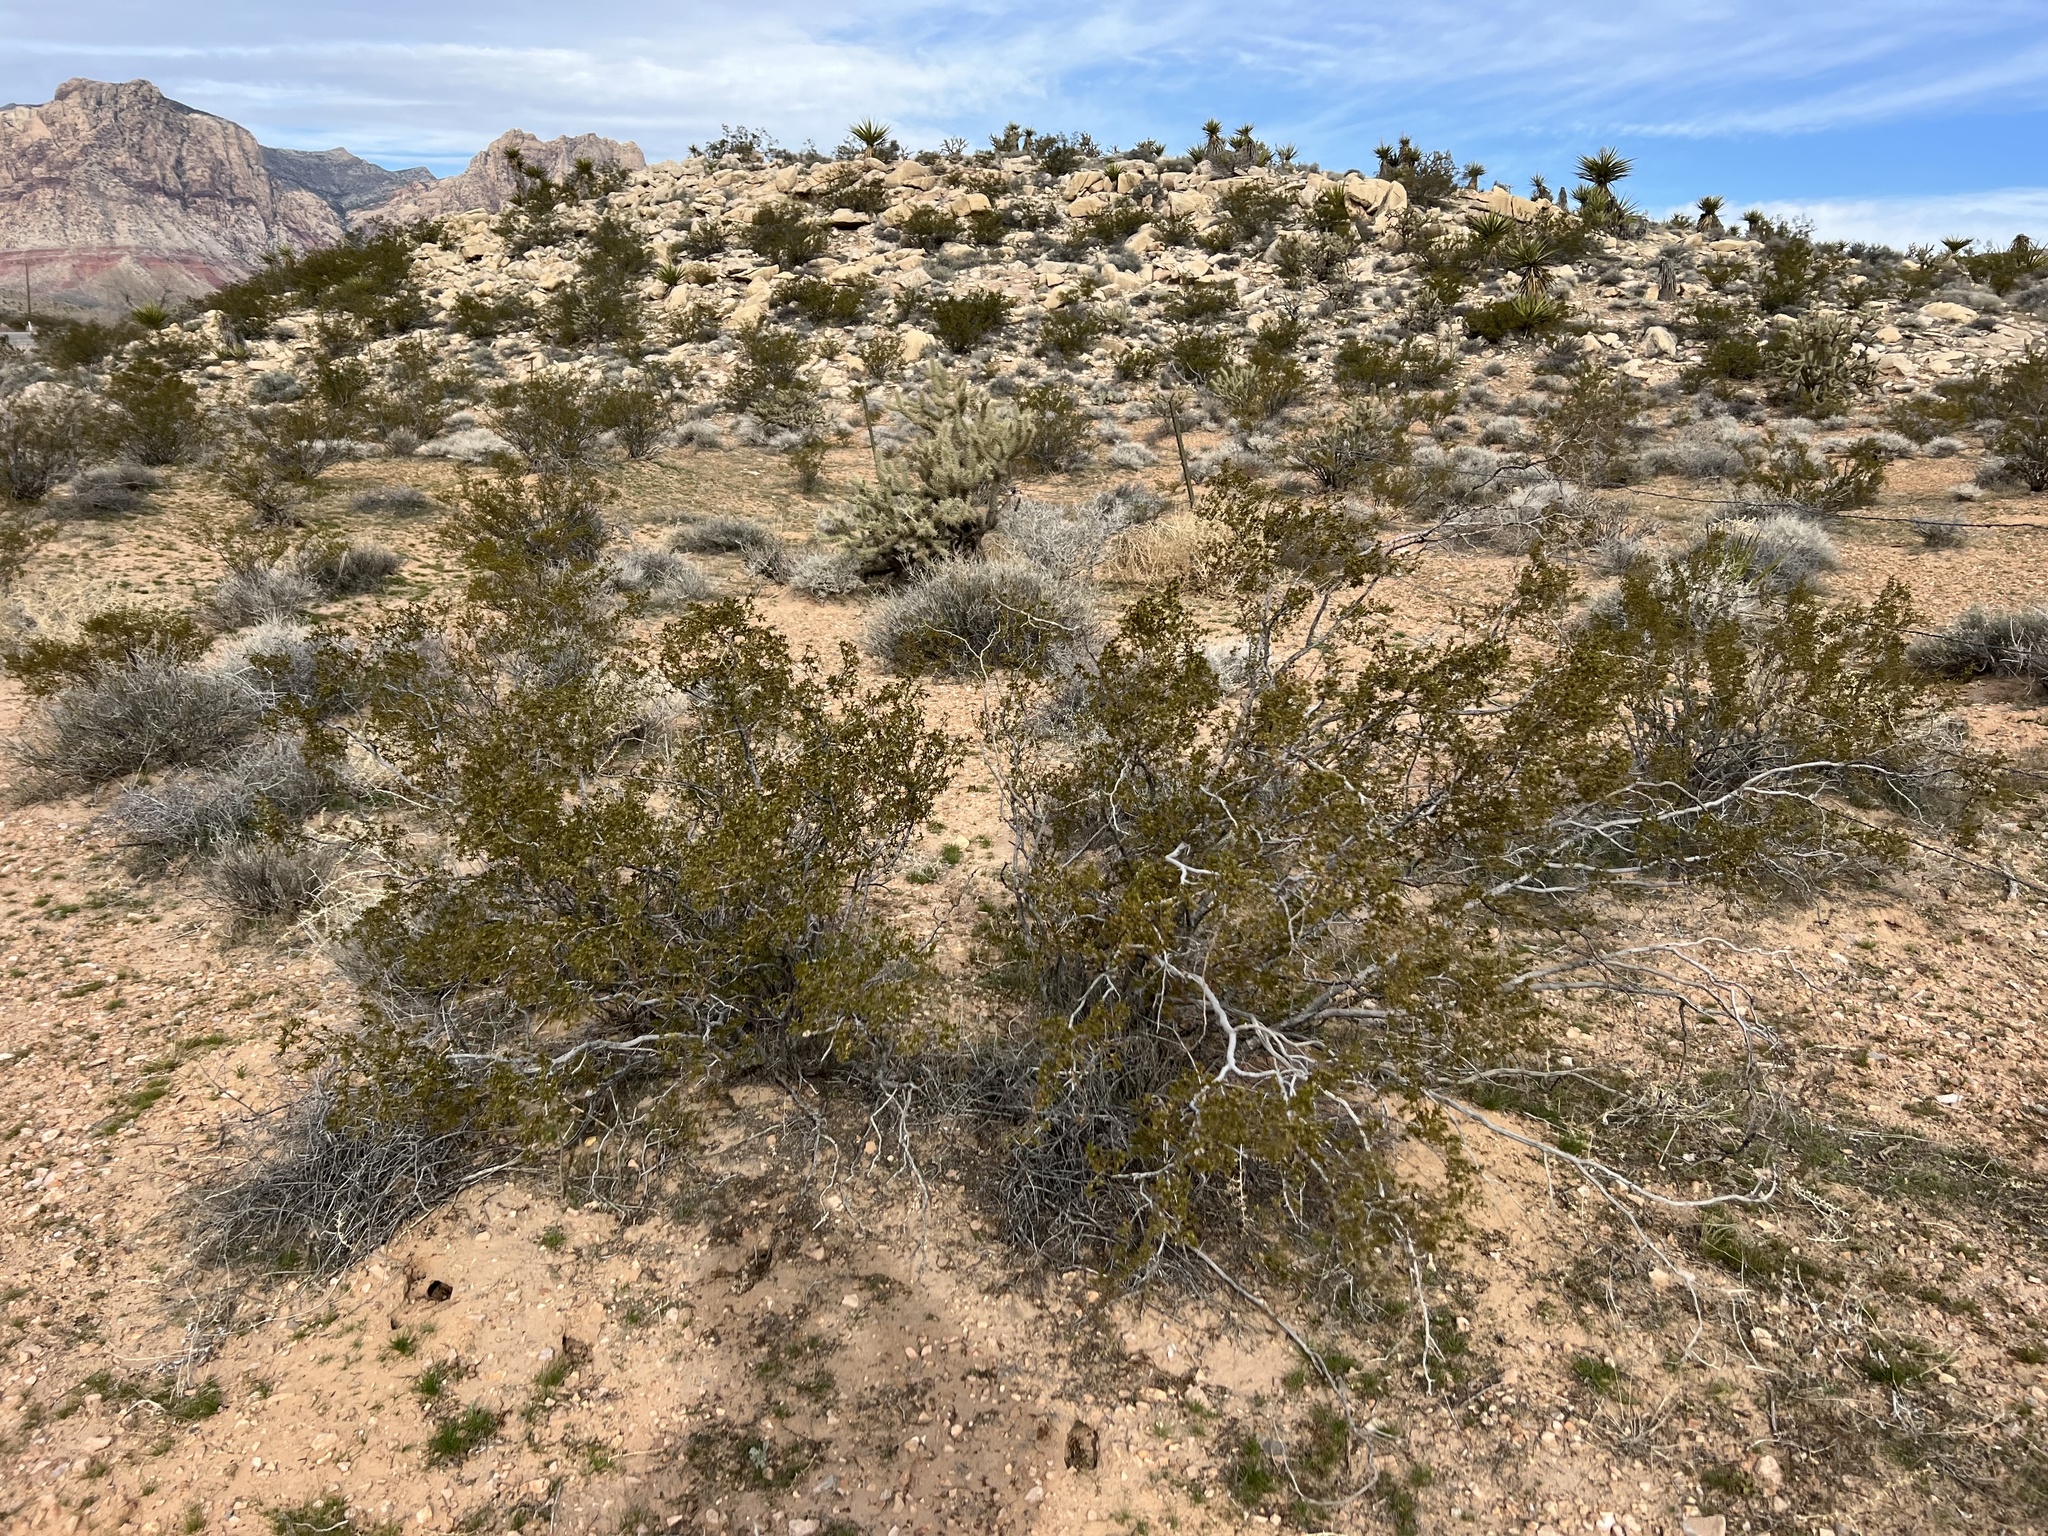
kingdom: Plantae
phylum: Tracheophyta
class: Magnoliopsida
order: Zygophyllales
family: Zygophyllaceae
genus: Larrea
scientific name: Larrea tridentata
